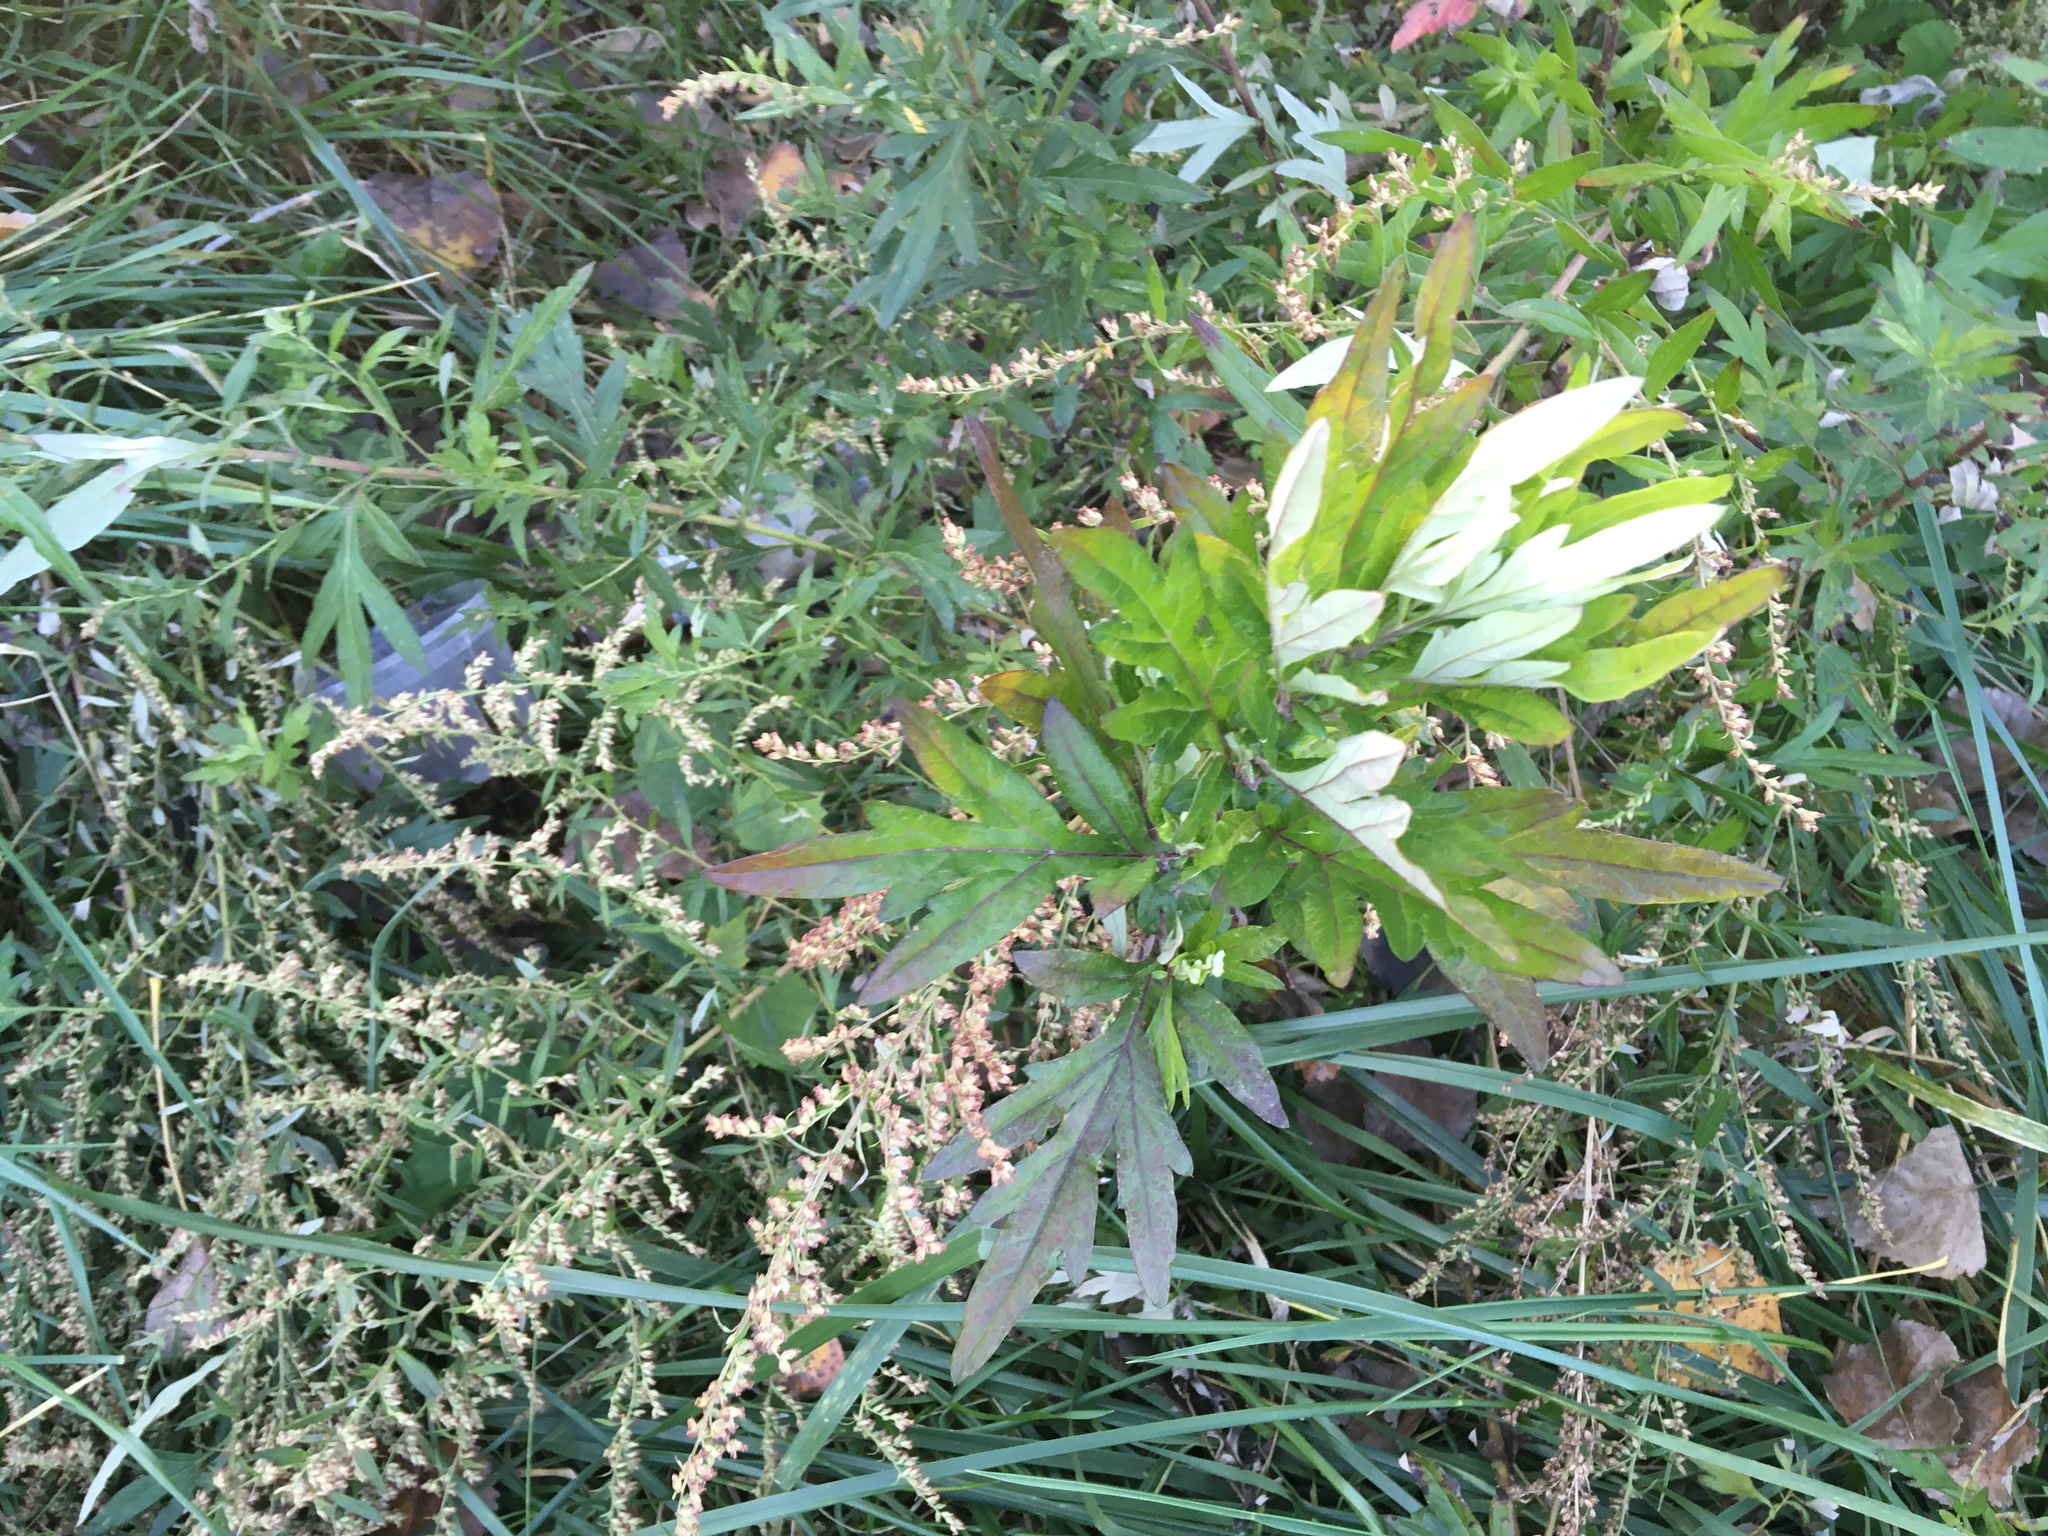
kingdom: Plantae
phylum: Tracheophyta
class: Magnoliopsida
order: Asterales
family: Asteraceae
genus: Artemisia
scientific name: Artemisia vulgaris
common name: Mugwort
